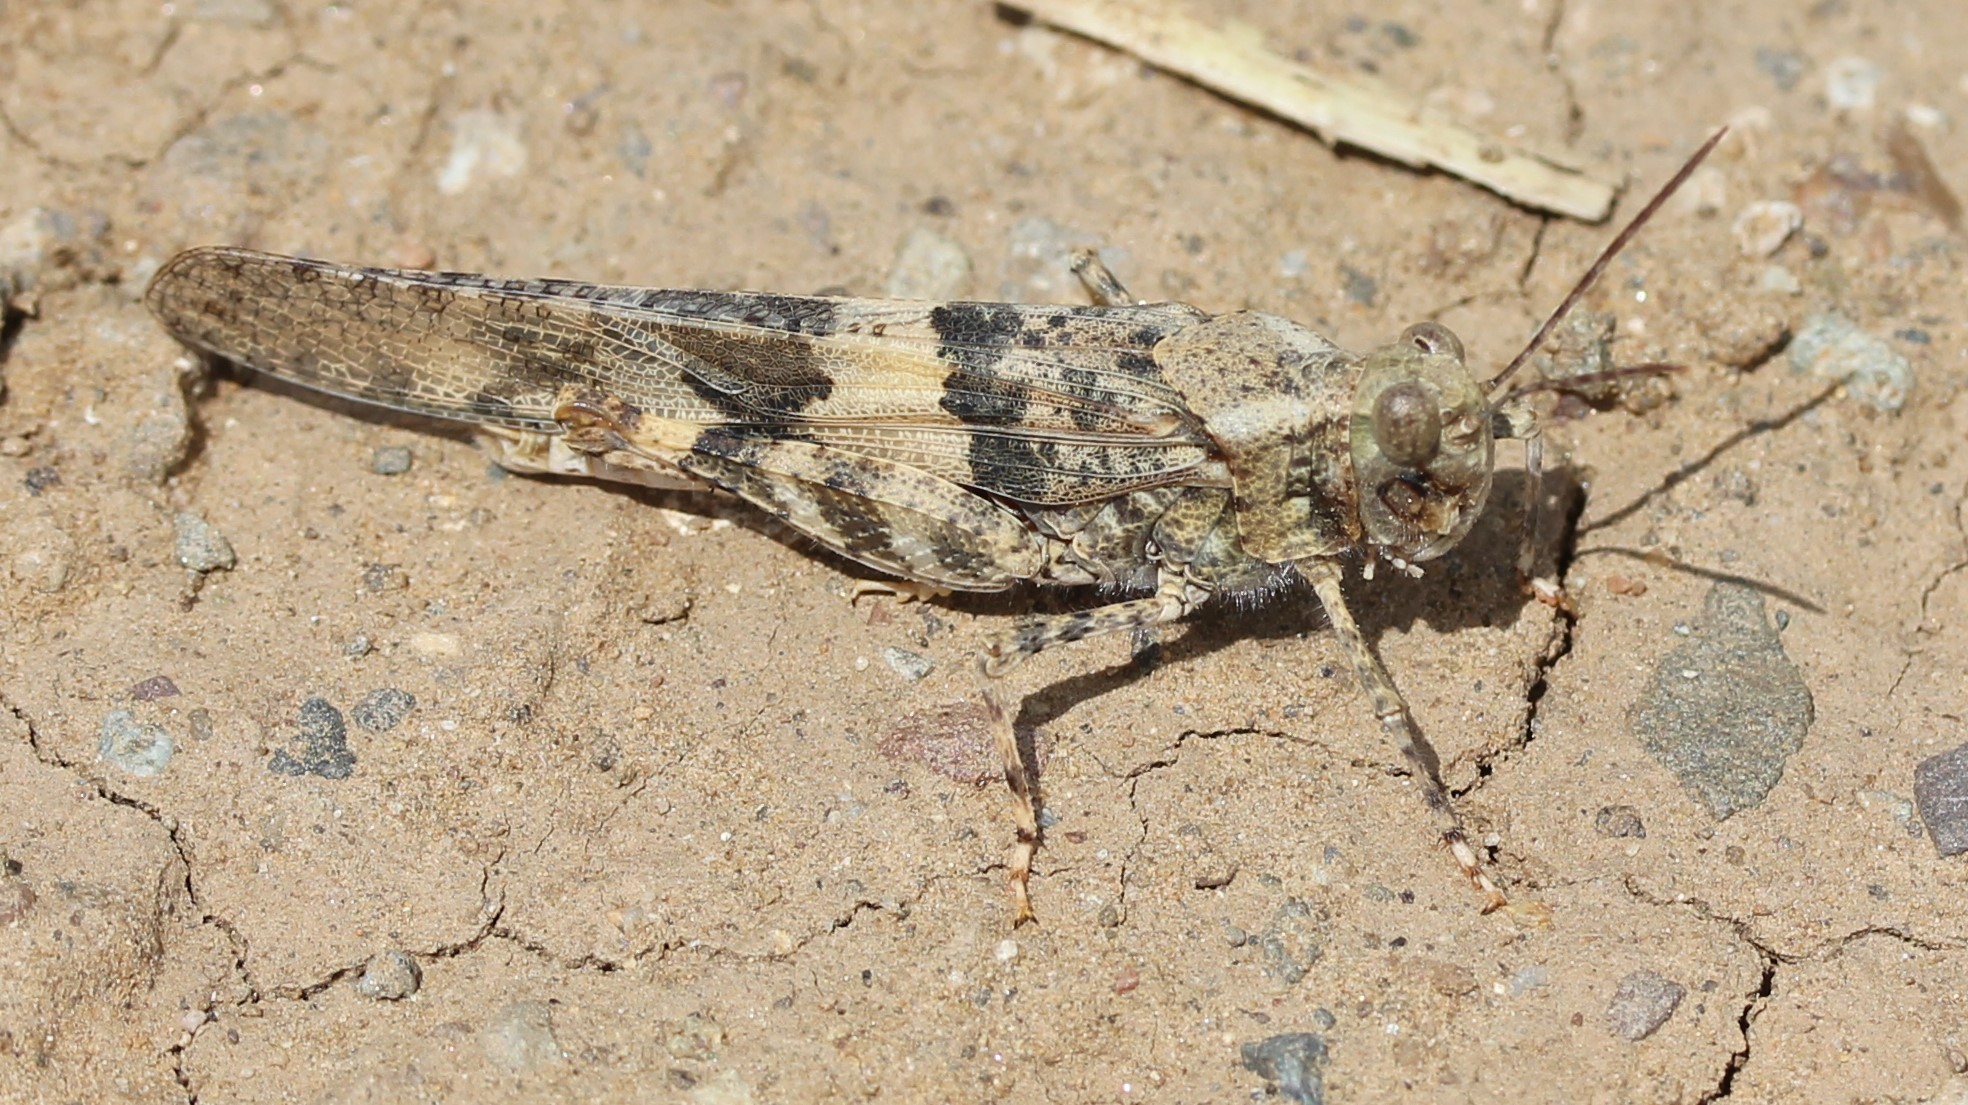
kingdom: Animalia
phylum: Arthropoda
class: Insecta
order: Orthoptera
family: Acrididae
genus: Trimerotropis
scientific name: Trimerotropis pallidipennis
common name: Pallid-winged grasshopper
